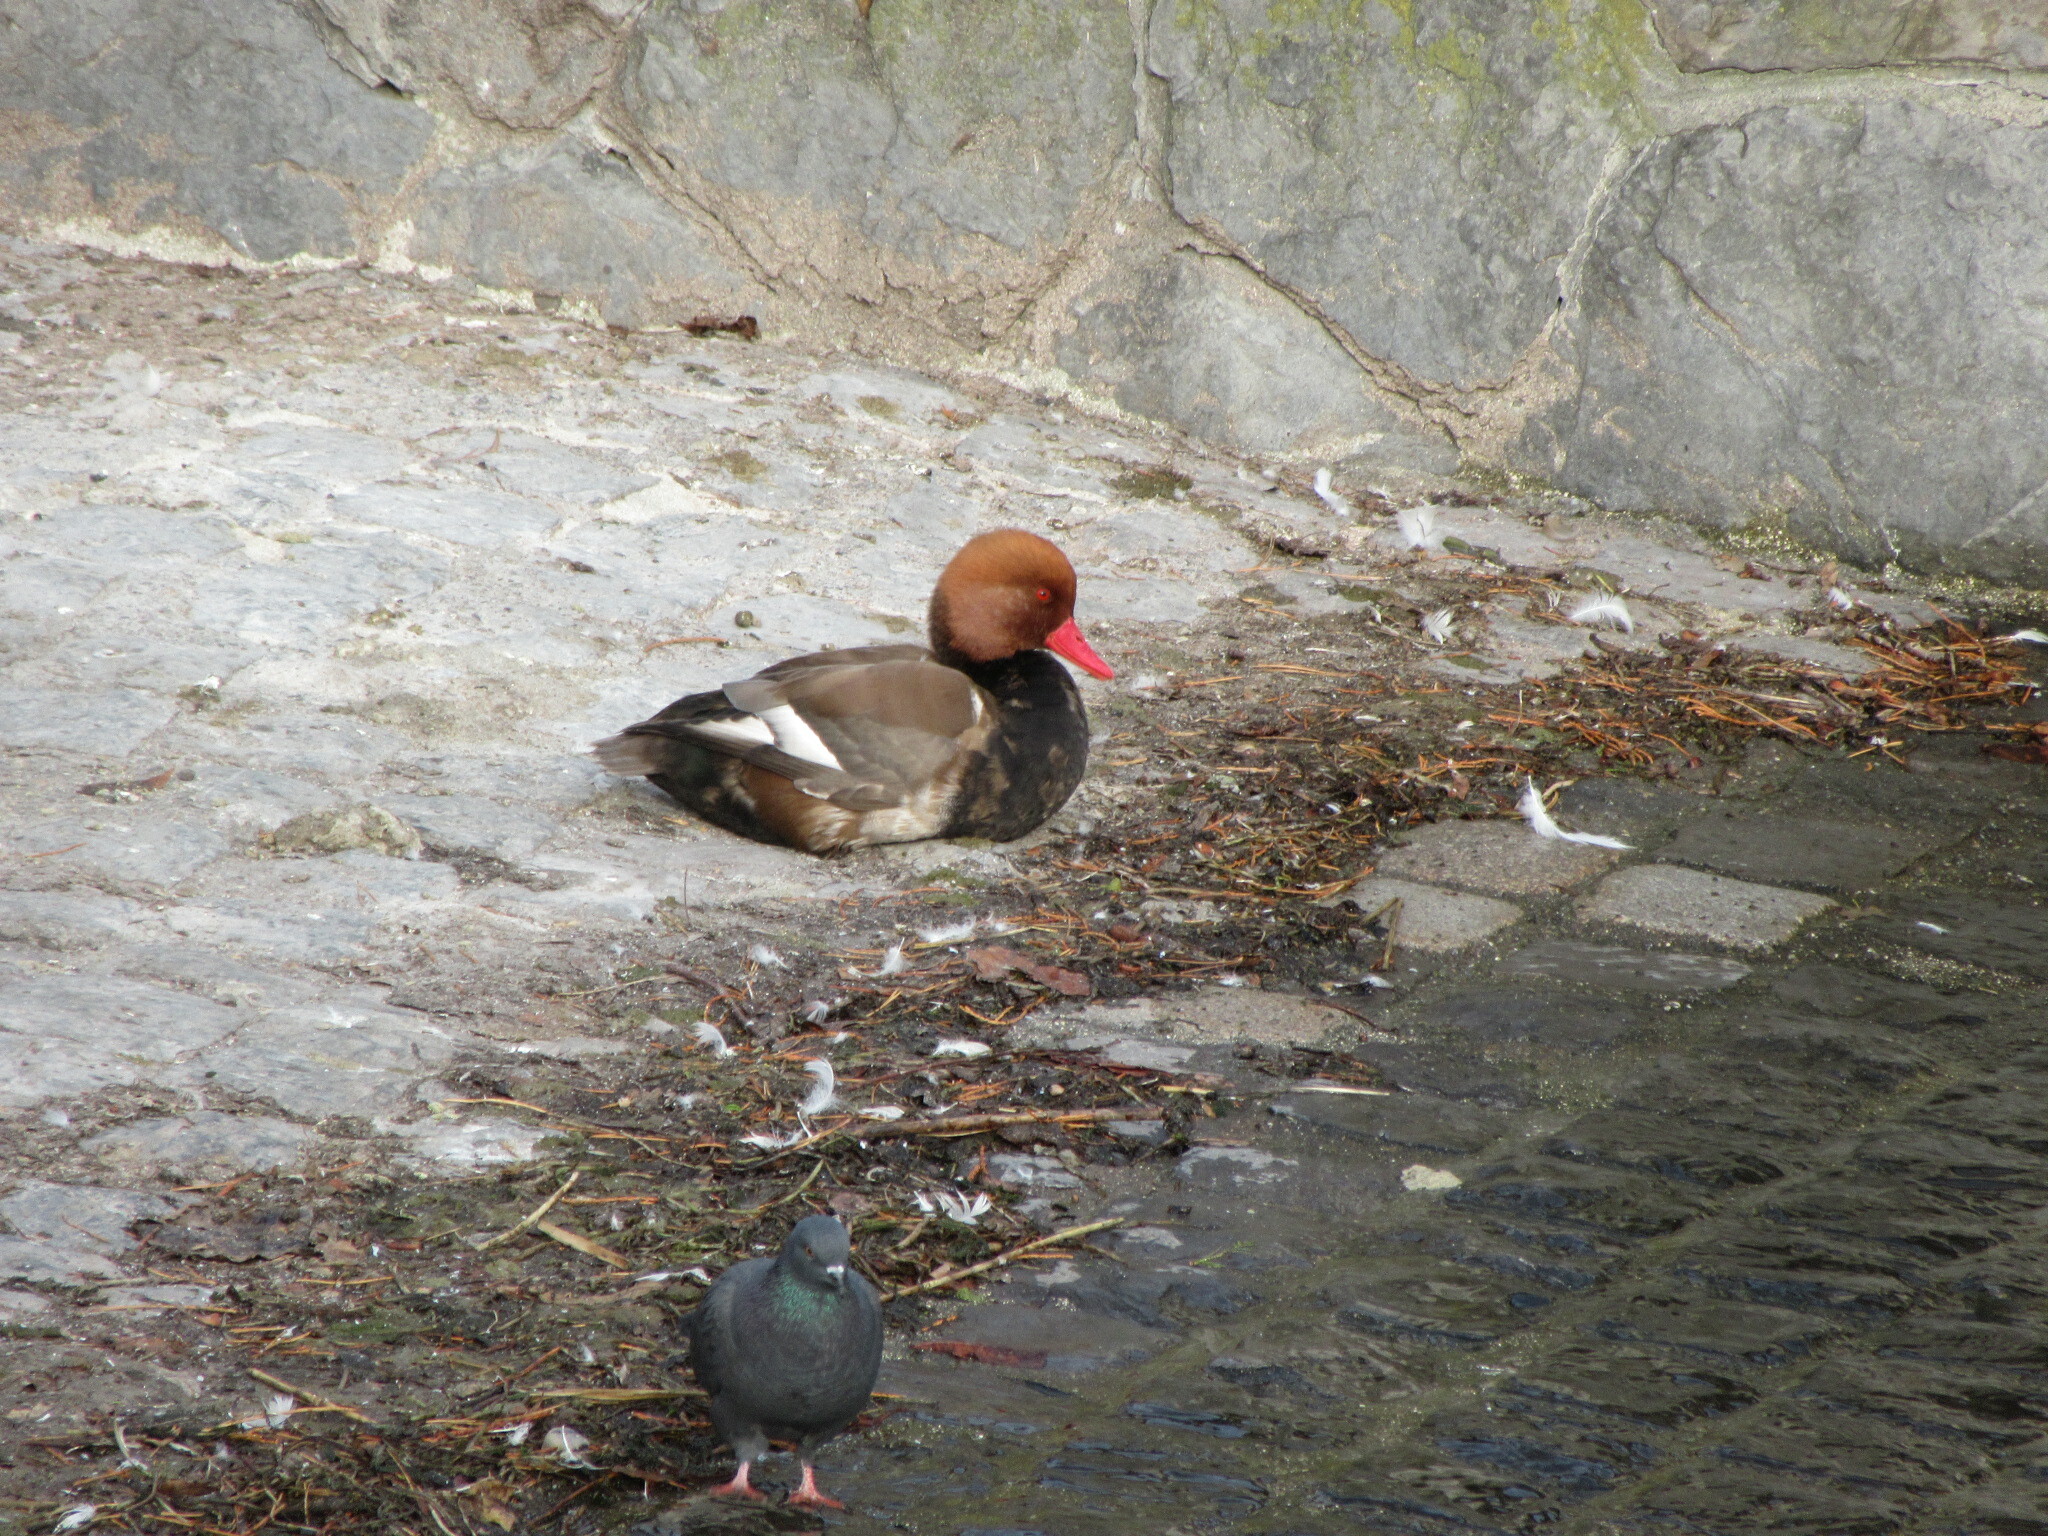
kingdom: Animalia
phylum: Chordata
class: Aves
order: Anseriformes
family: Anatidae
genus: Netta
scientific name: Netta rufina
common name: Red-crested pochard
